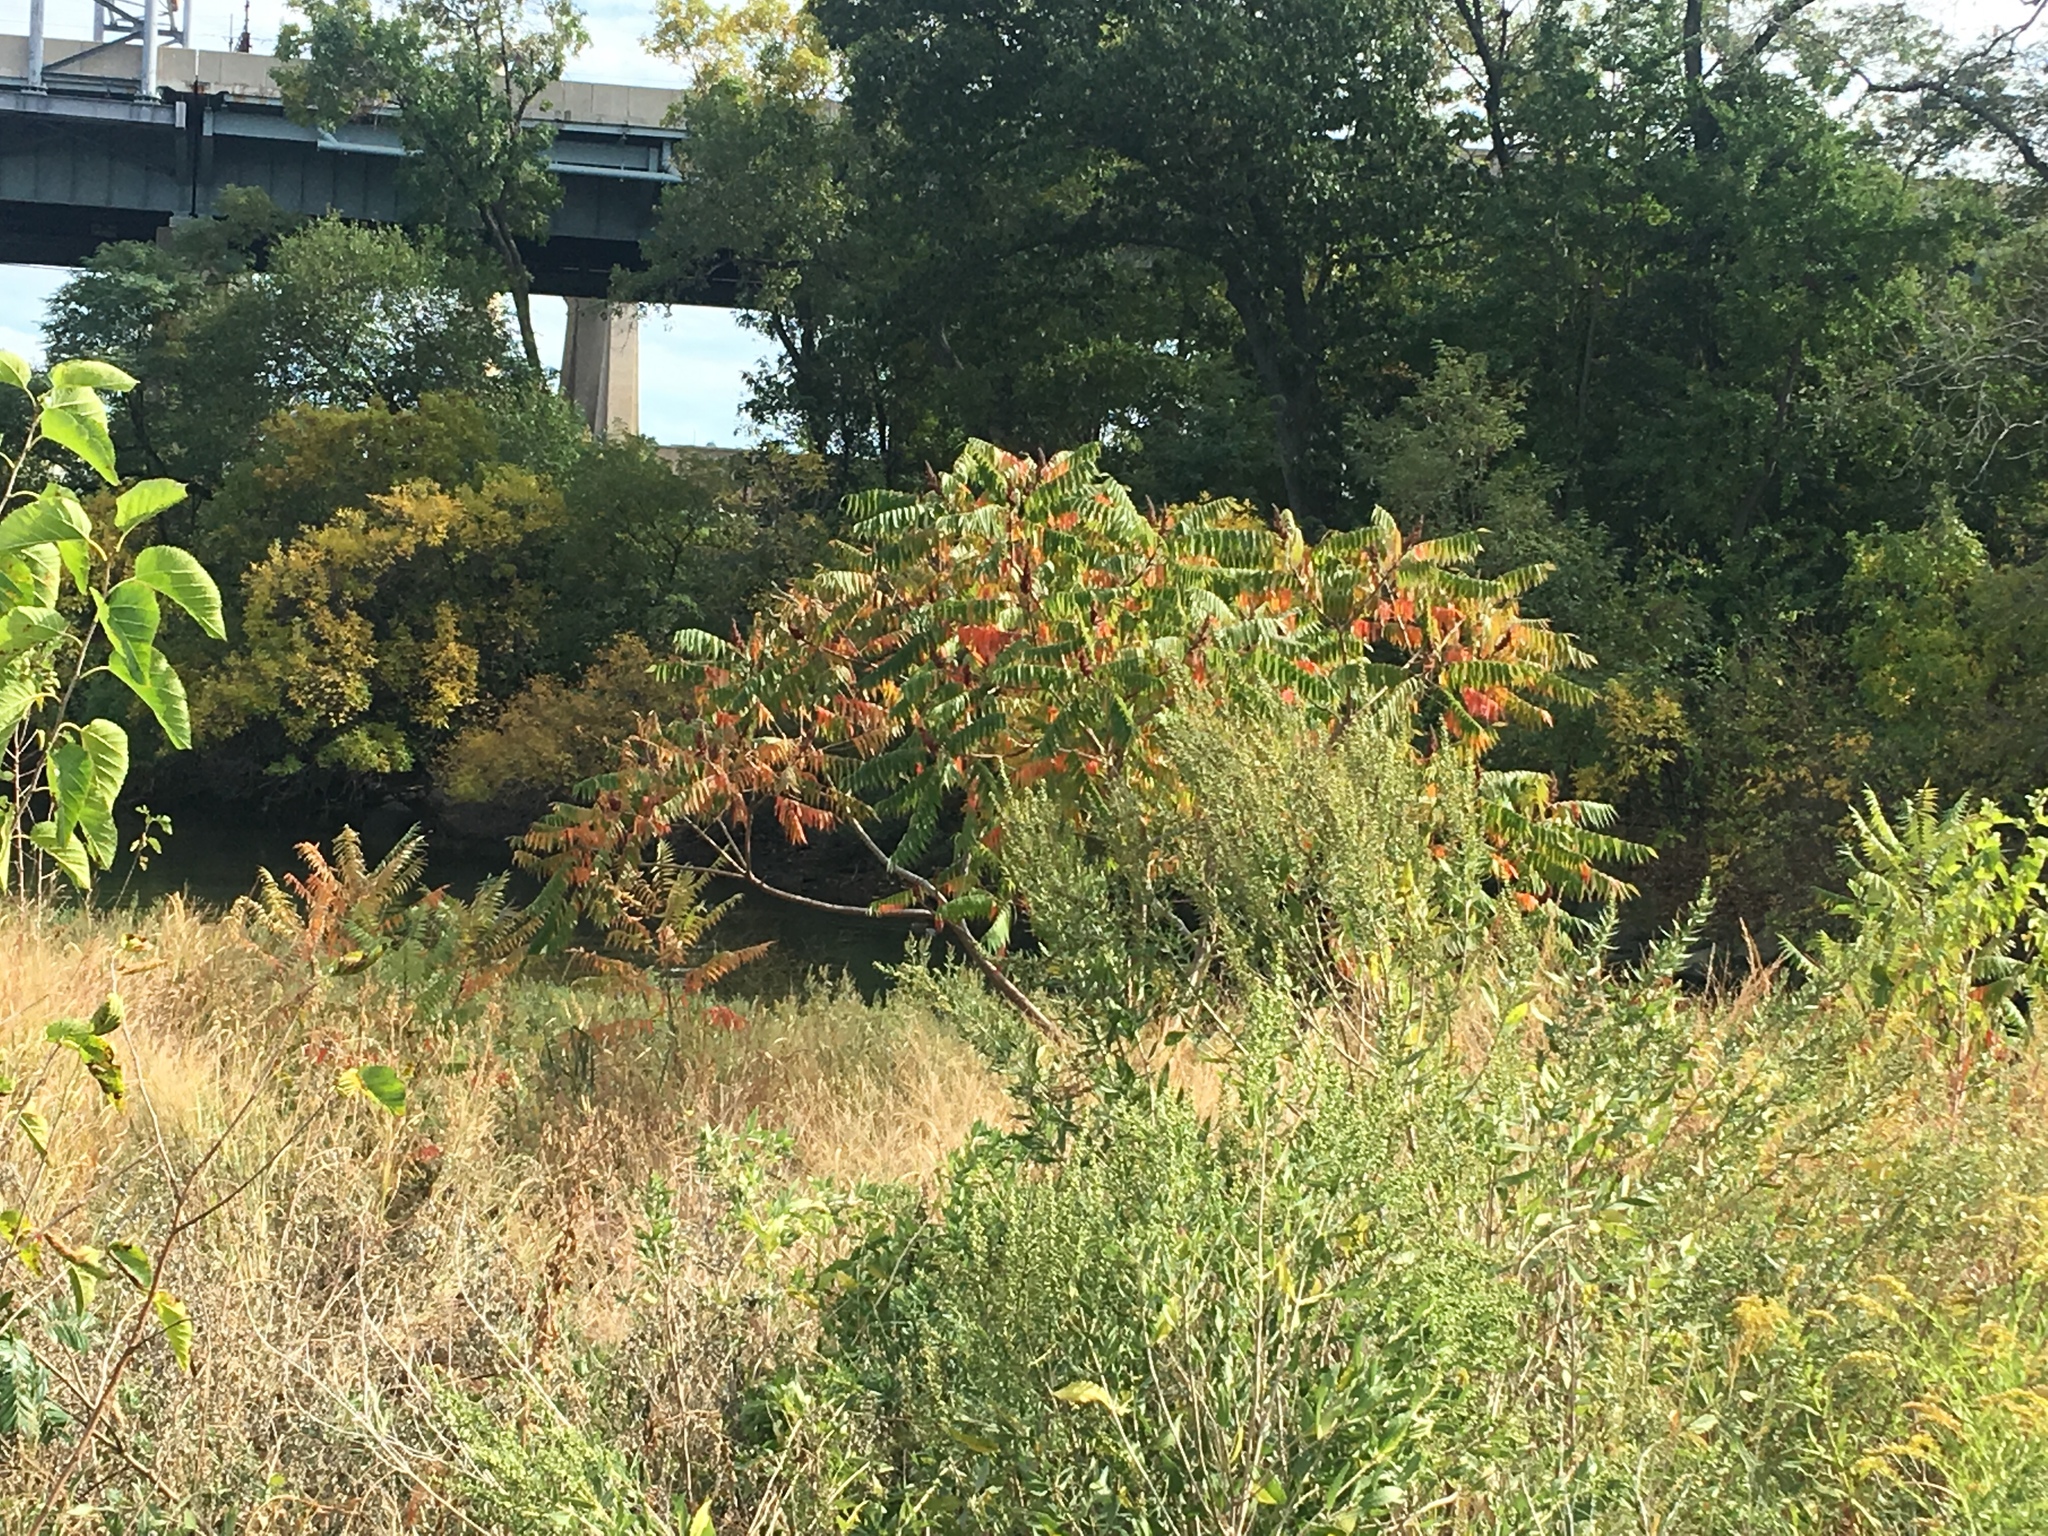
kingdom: Plantae
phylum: Tracheophyta
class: Magnoliopsida
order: Sapindales
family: Anacardiaceae
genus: Rhus
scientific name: Rhus glabra
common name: Scarlet sumac
